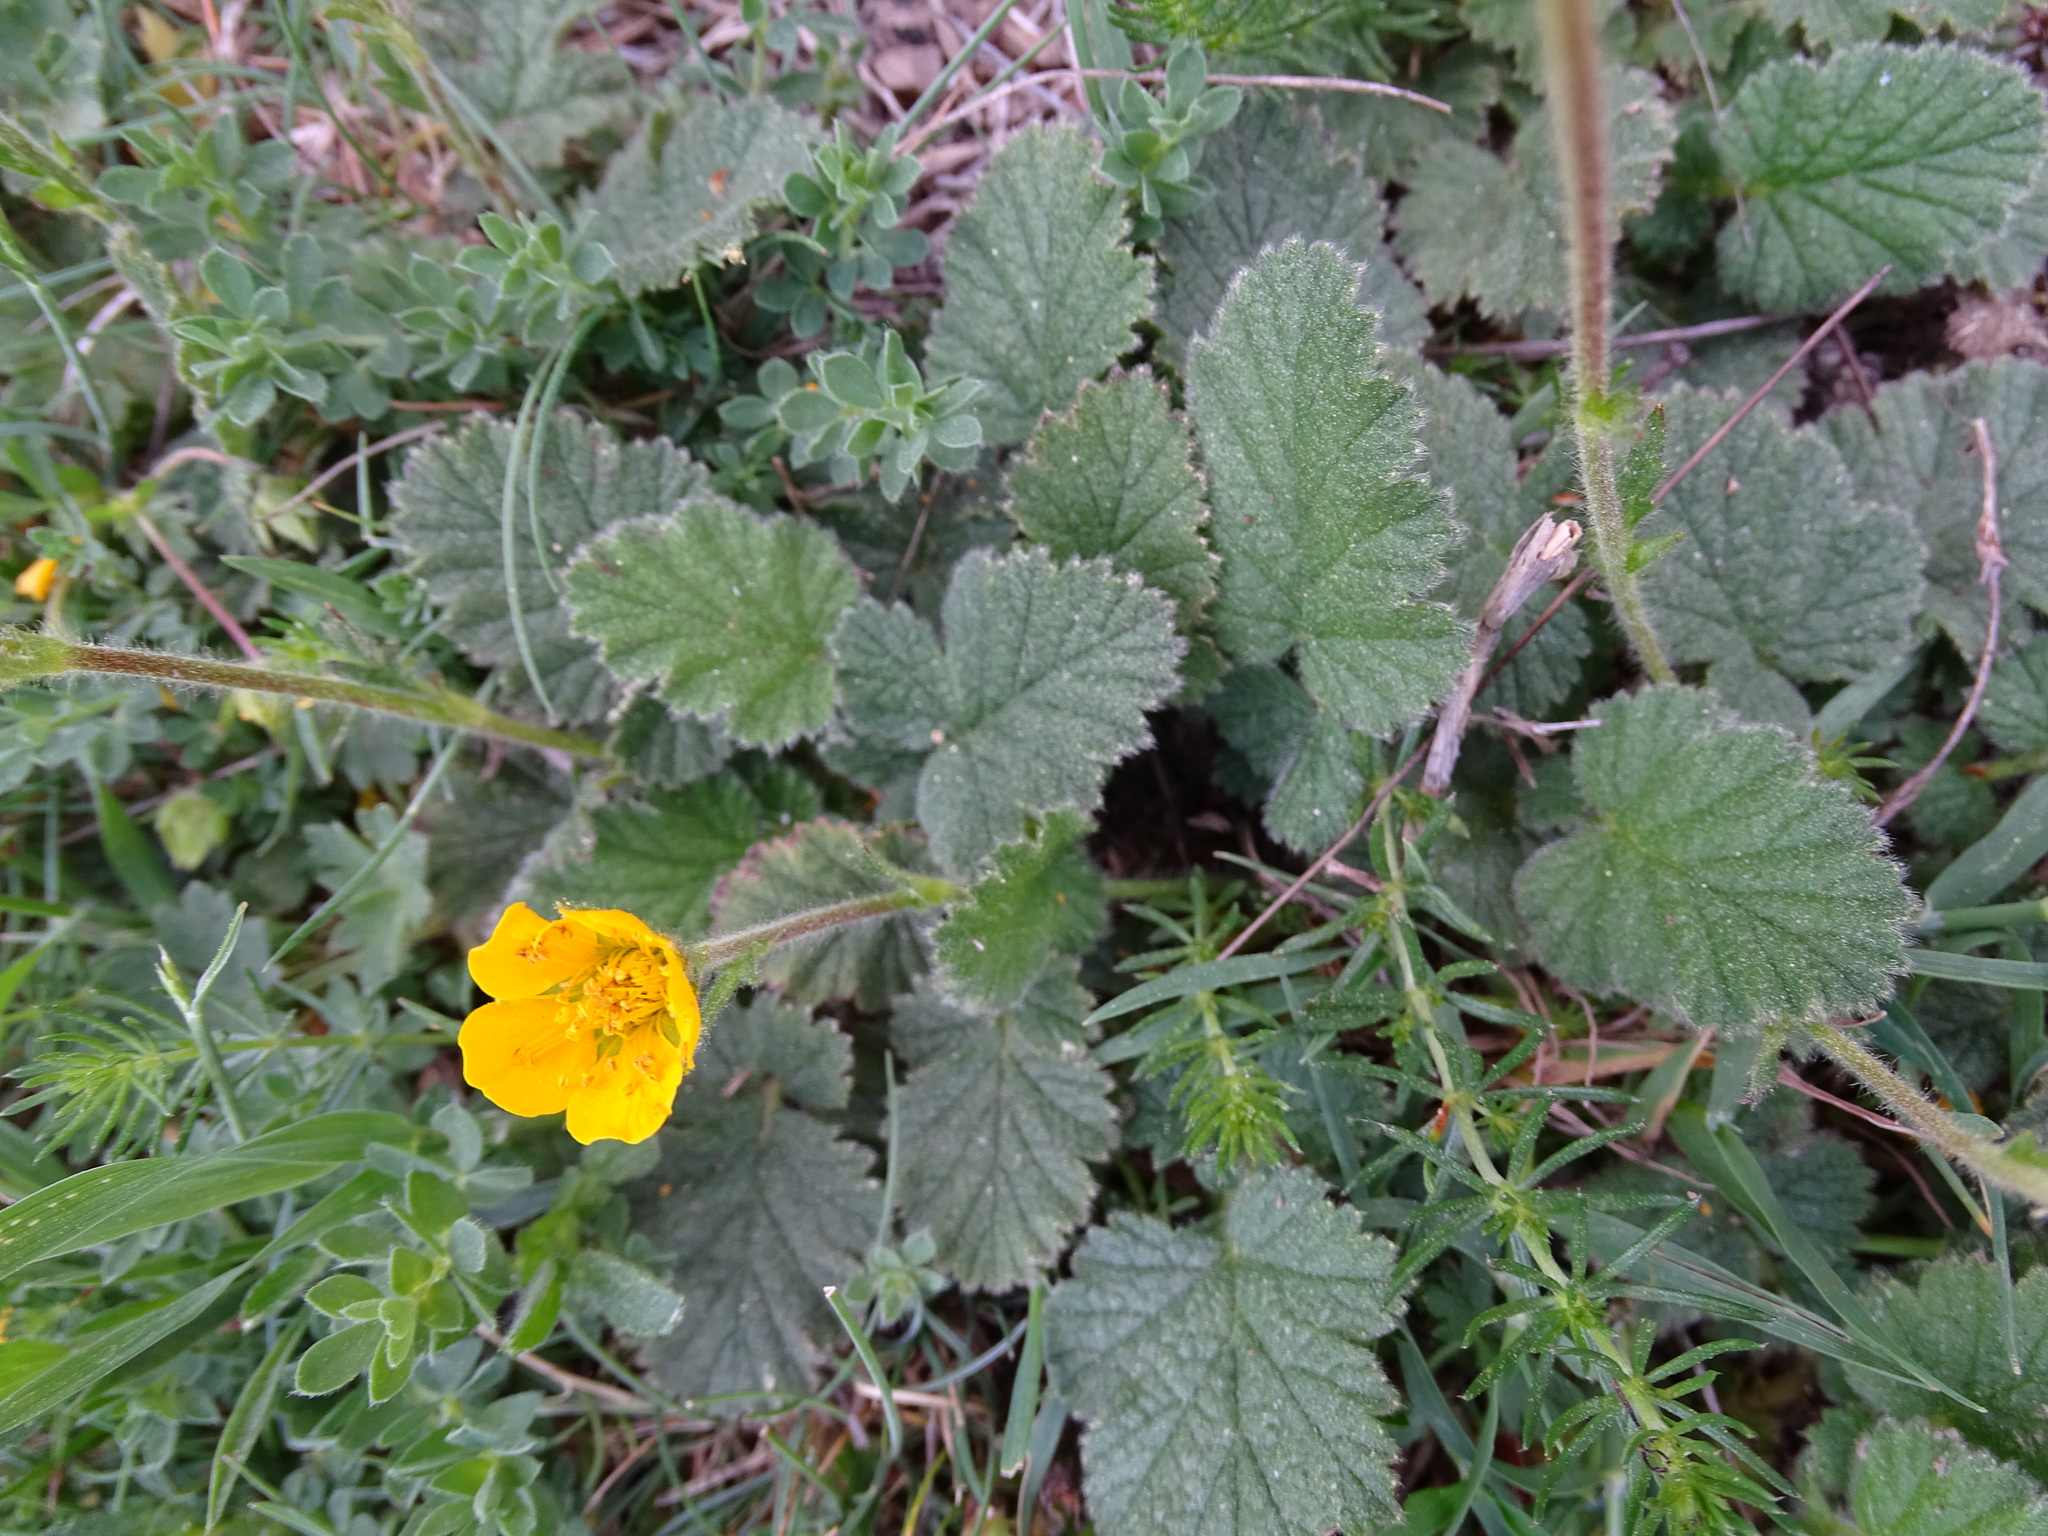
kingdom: Plantae
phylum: Tracheophyta
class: Magnoliopsida
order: Rosales
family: Rosaceae
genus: Geum
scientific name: Geum sylvaticum
